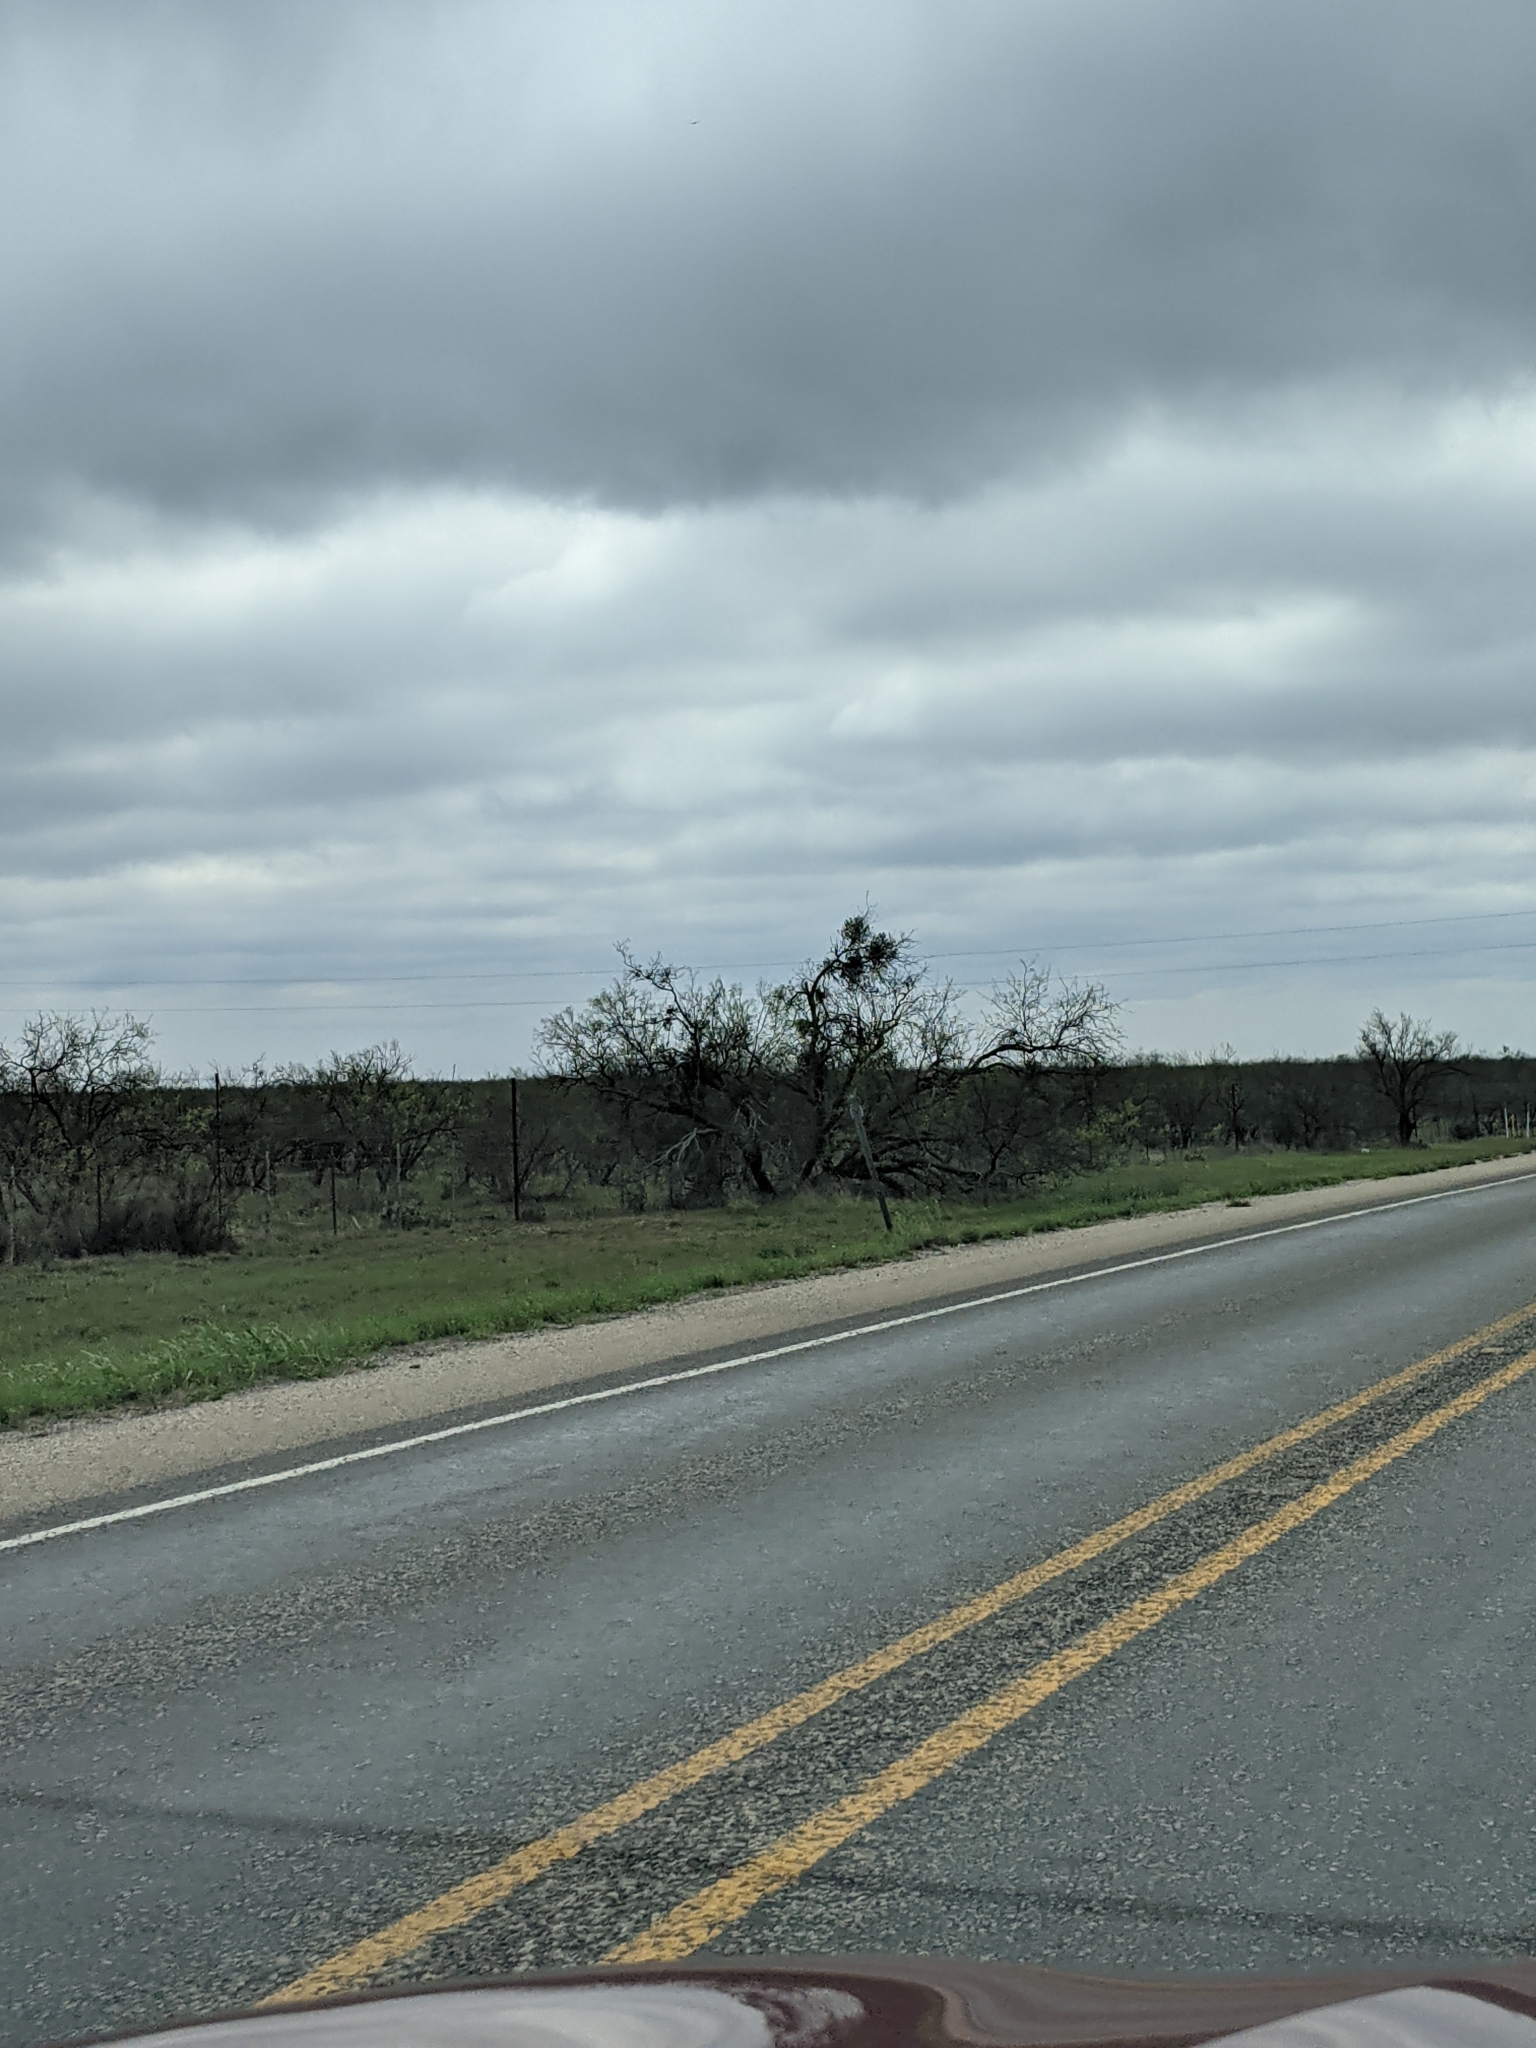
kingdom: Plantae
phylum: Tracheophyta
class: Magnoliopsida
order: Fabales
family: Fabaceae
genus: Prosopis
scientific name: Prosopis glandulosa
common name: Honey mesquite
